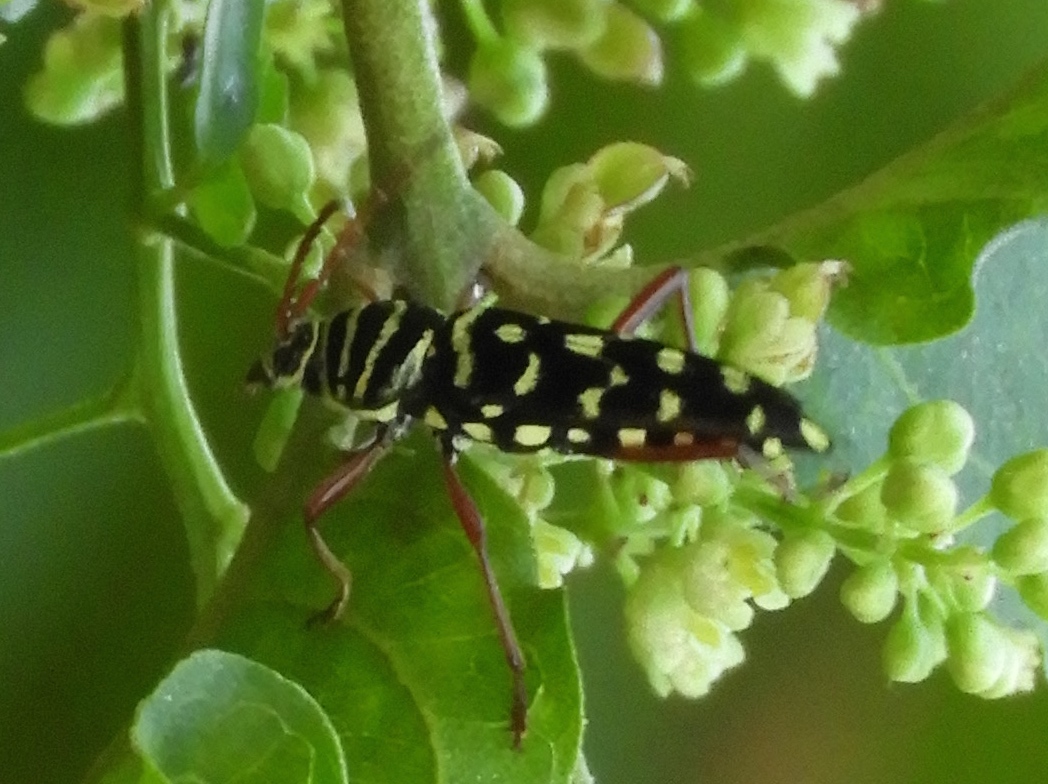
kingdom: Animalia
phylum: Arthropoda
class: Insecta
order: Coleoptera
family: Cerambycidae
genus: Placosternus
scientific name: Placosternus difficilis
